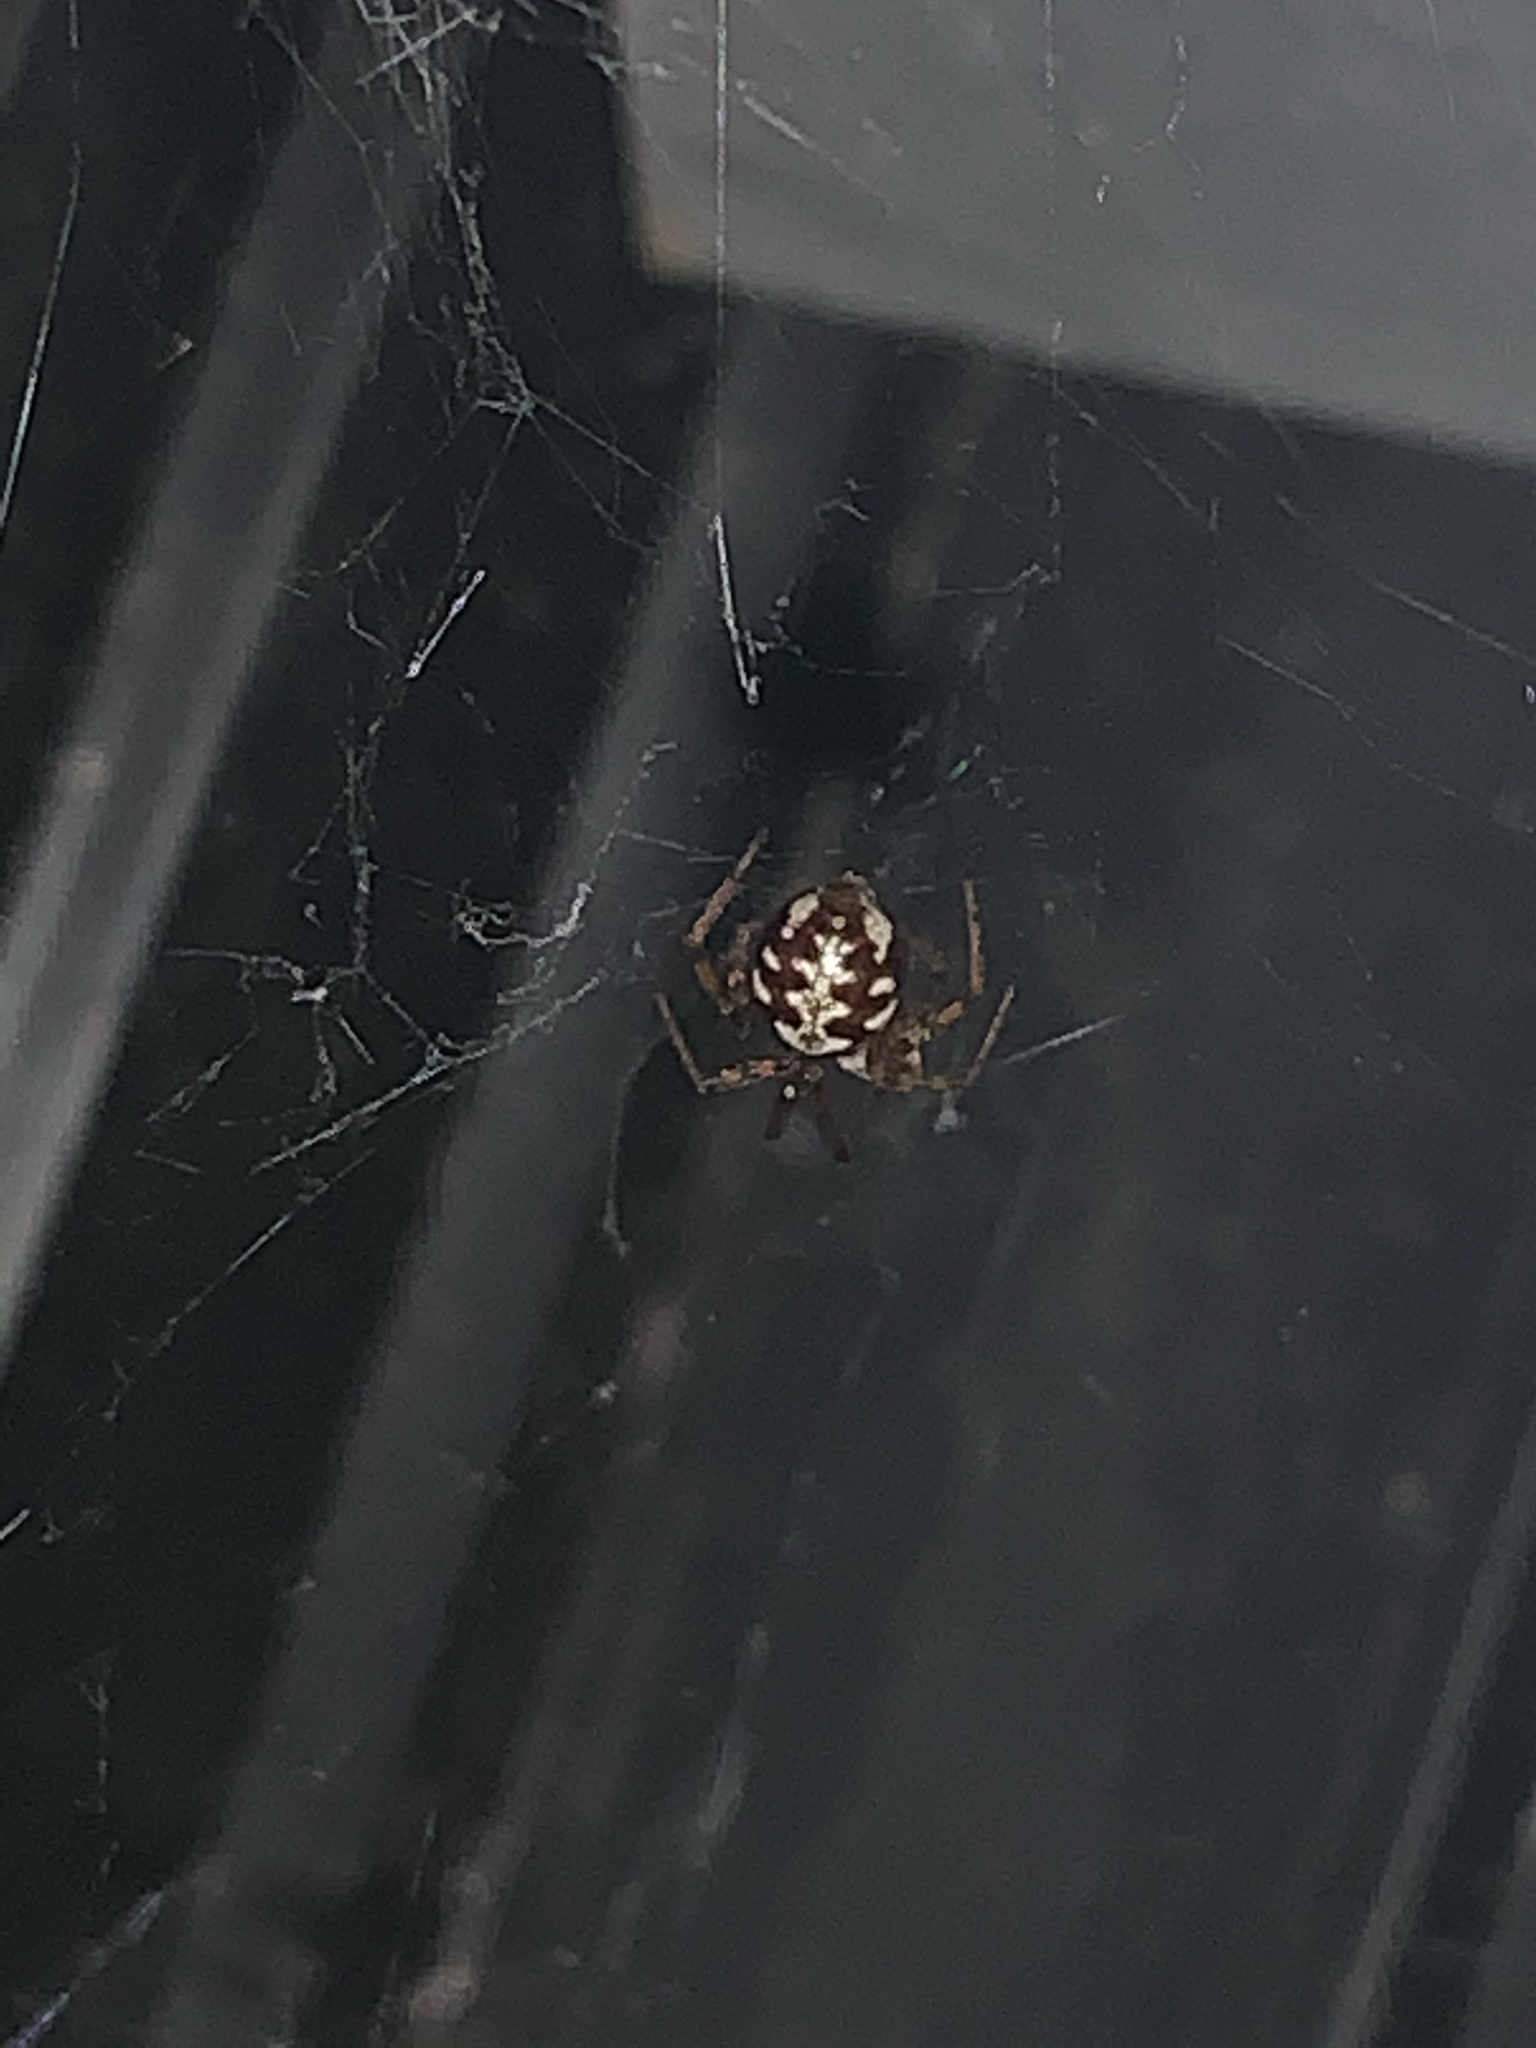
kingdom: Animalia
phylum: Arthropoda
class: Arachnida
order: Araneae
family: Theridiidae
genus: Steatoda
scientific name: Steatoda triangulosa
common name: Triangulate bud spider
